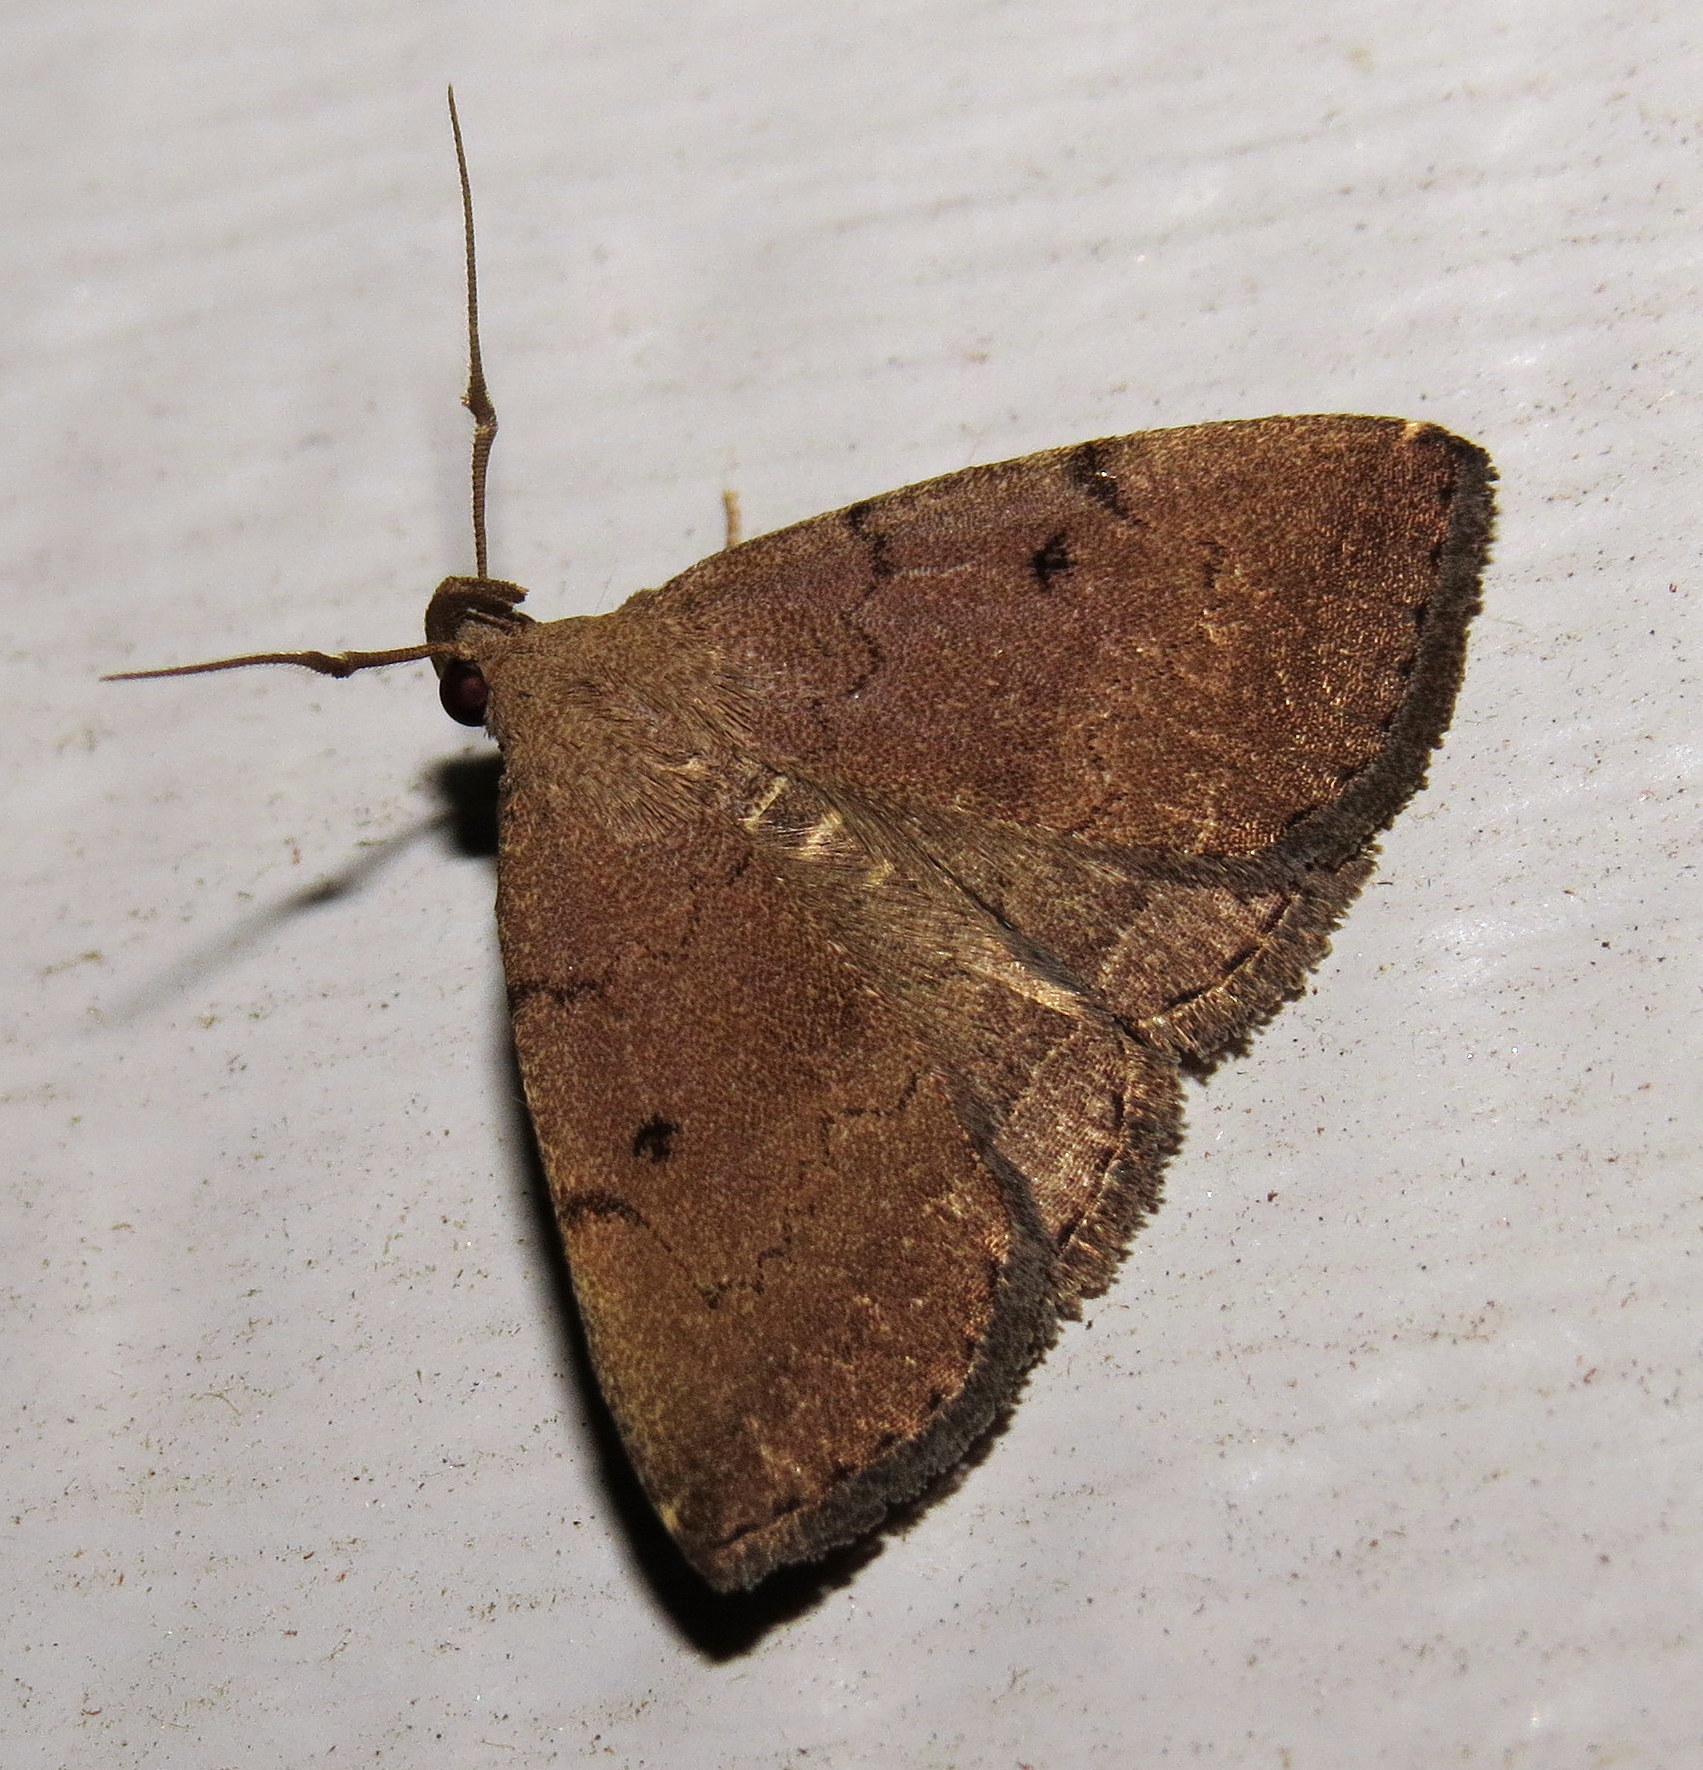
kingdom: Animalia
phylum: Arthropoda
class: Insecta
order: Lepidoptera
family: Erebidae
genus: Zanclognatha
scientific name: Zanclognatha protumnusalis
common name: Complex fan-foot
